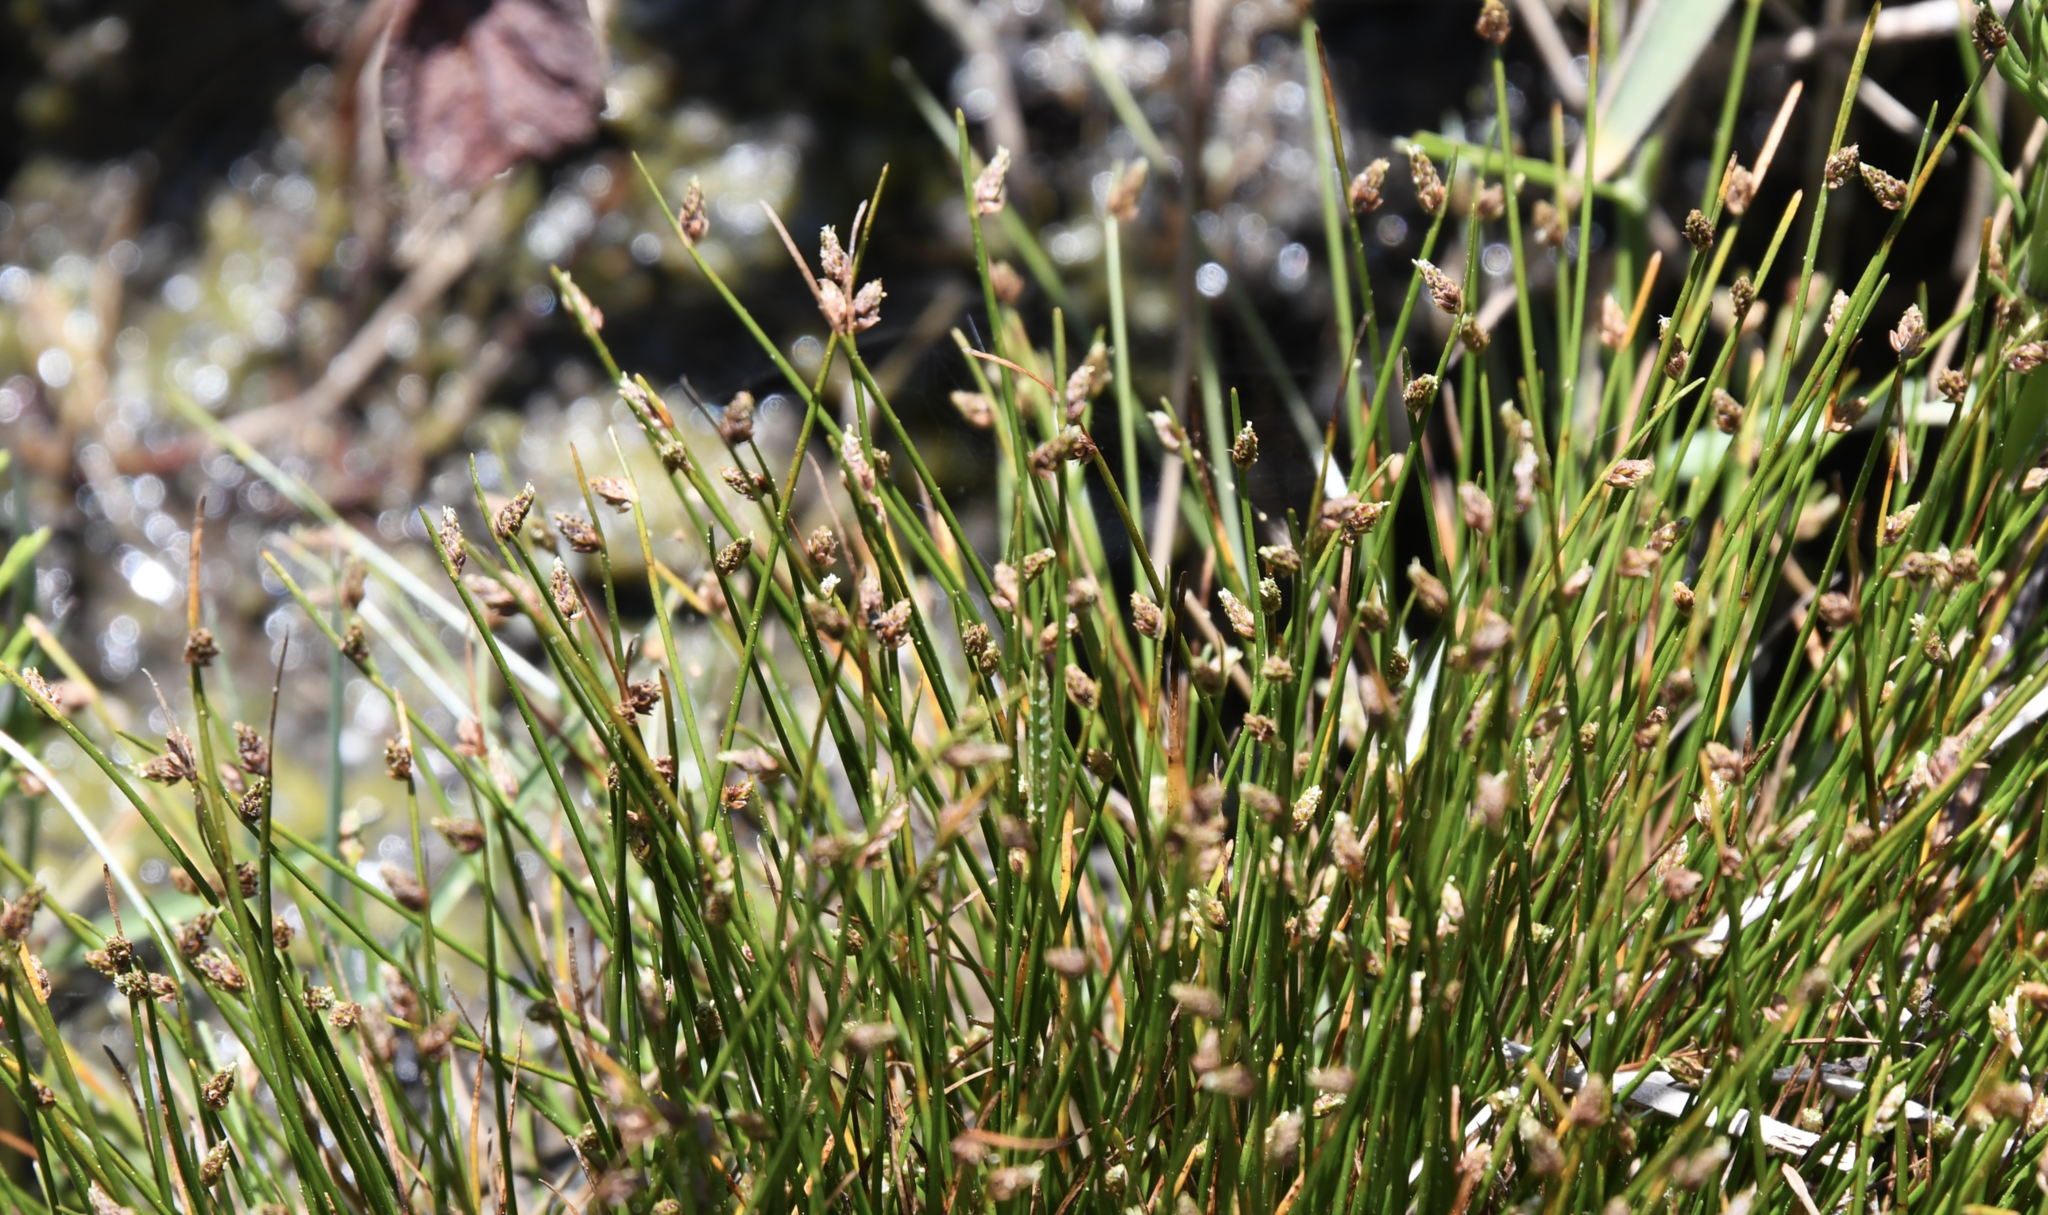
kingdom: Plantae
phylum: Tracheophyta
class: Liliopsida
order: Poales
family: Cyperaceae
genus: Isolepis
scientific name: Isolepis cernua
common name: Slender club-rush
